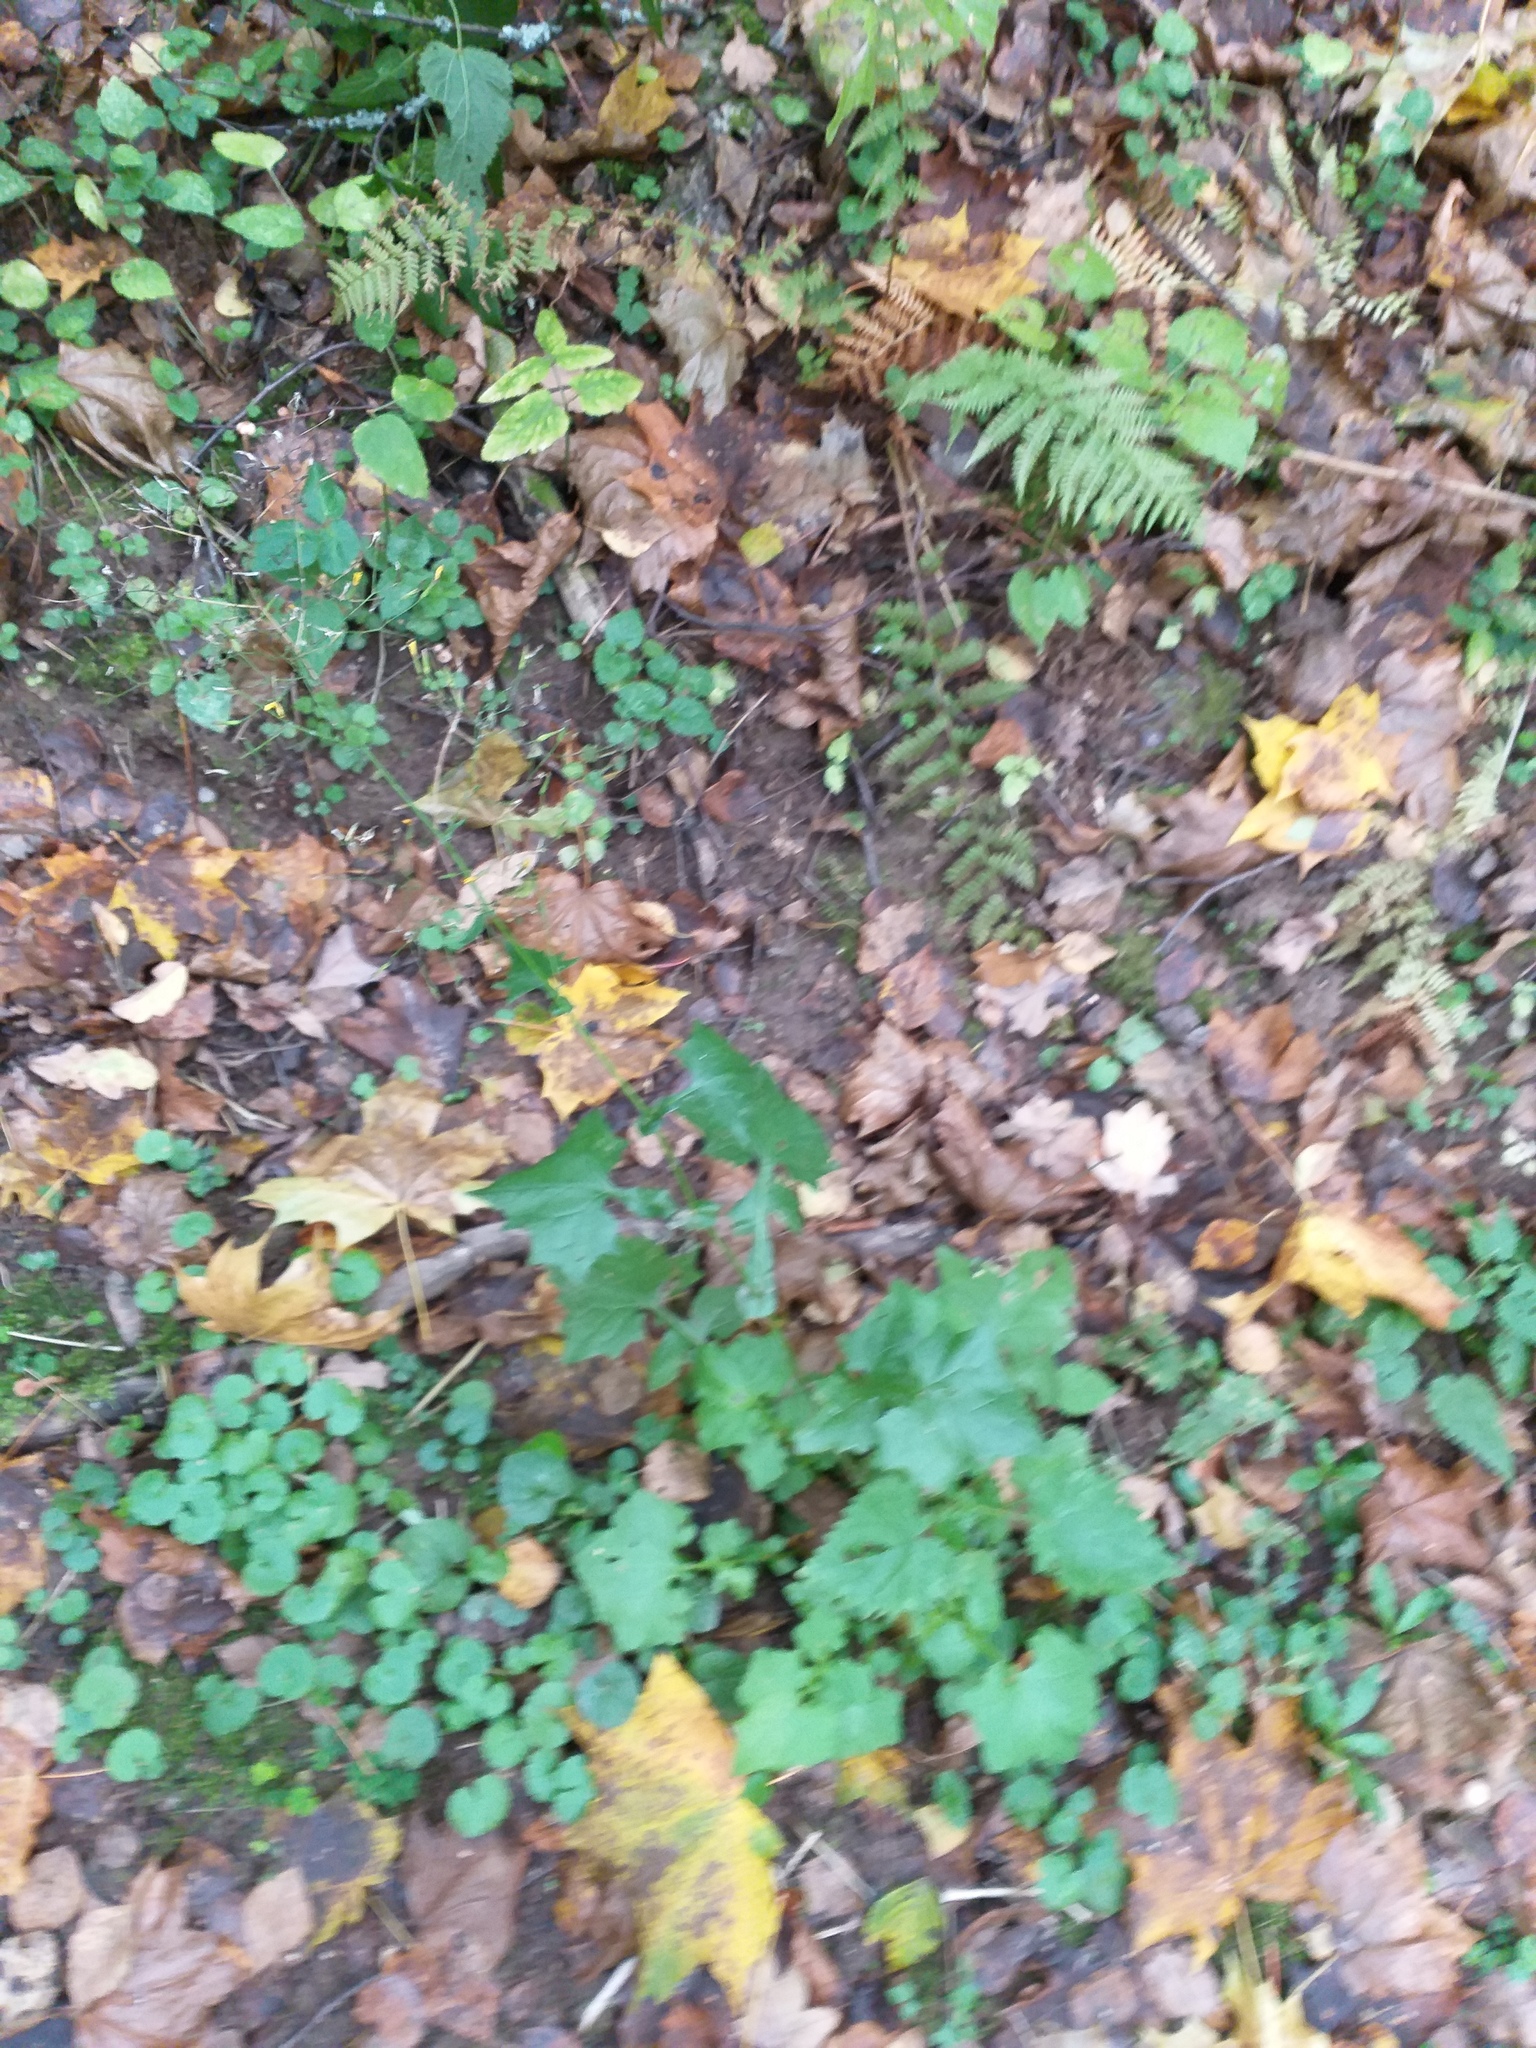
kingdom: Plantae
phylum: Tracheophyta
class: Magnoliopsida
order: Asterales
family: Asteraceae
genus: Mycelis
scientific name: Mycelis muralis
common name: Wall lettuce
